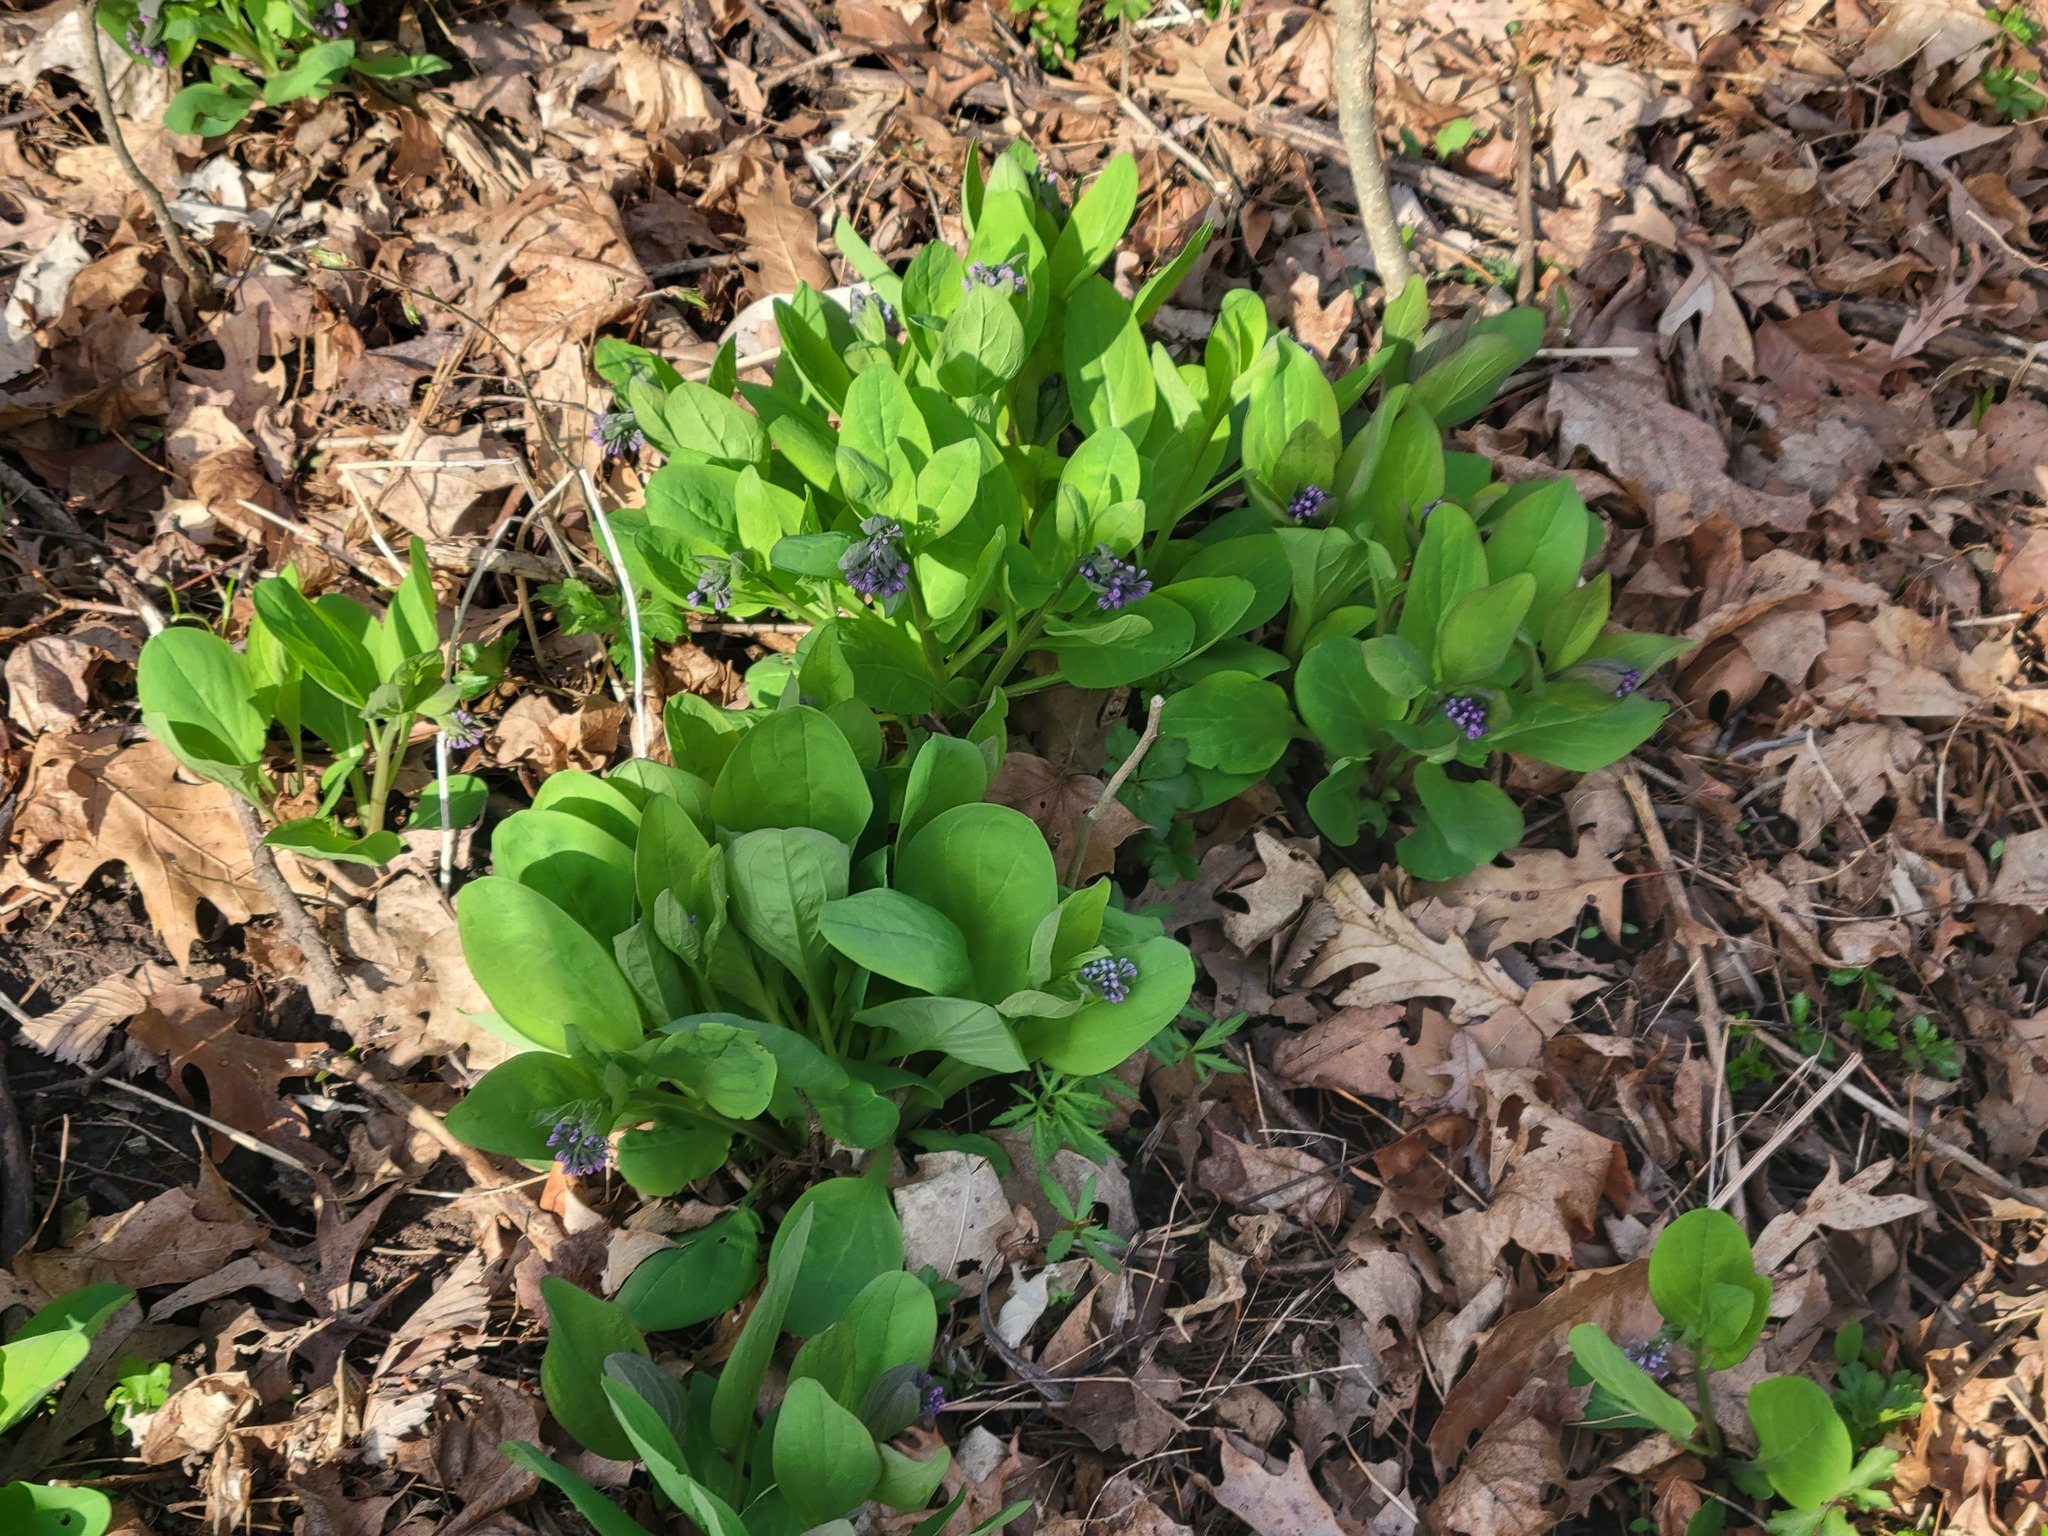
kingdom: Plantae
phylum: Tracheophyta
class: Magnoliopsida
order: Boraginales
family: Boraginaceae
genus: Mertensia
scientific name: Mertensia virginica
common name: Virginia bluebells
